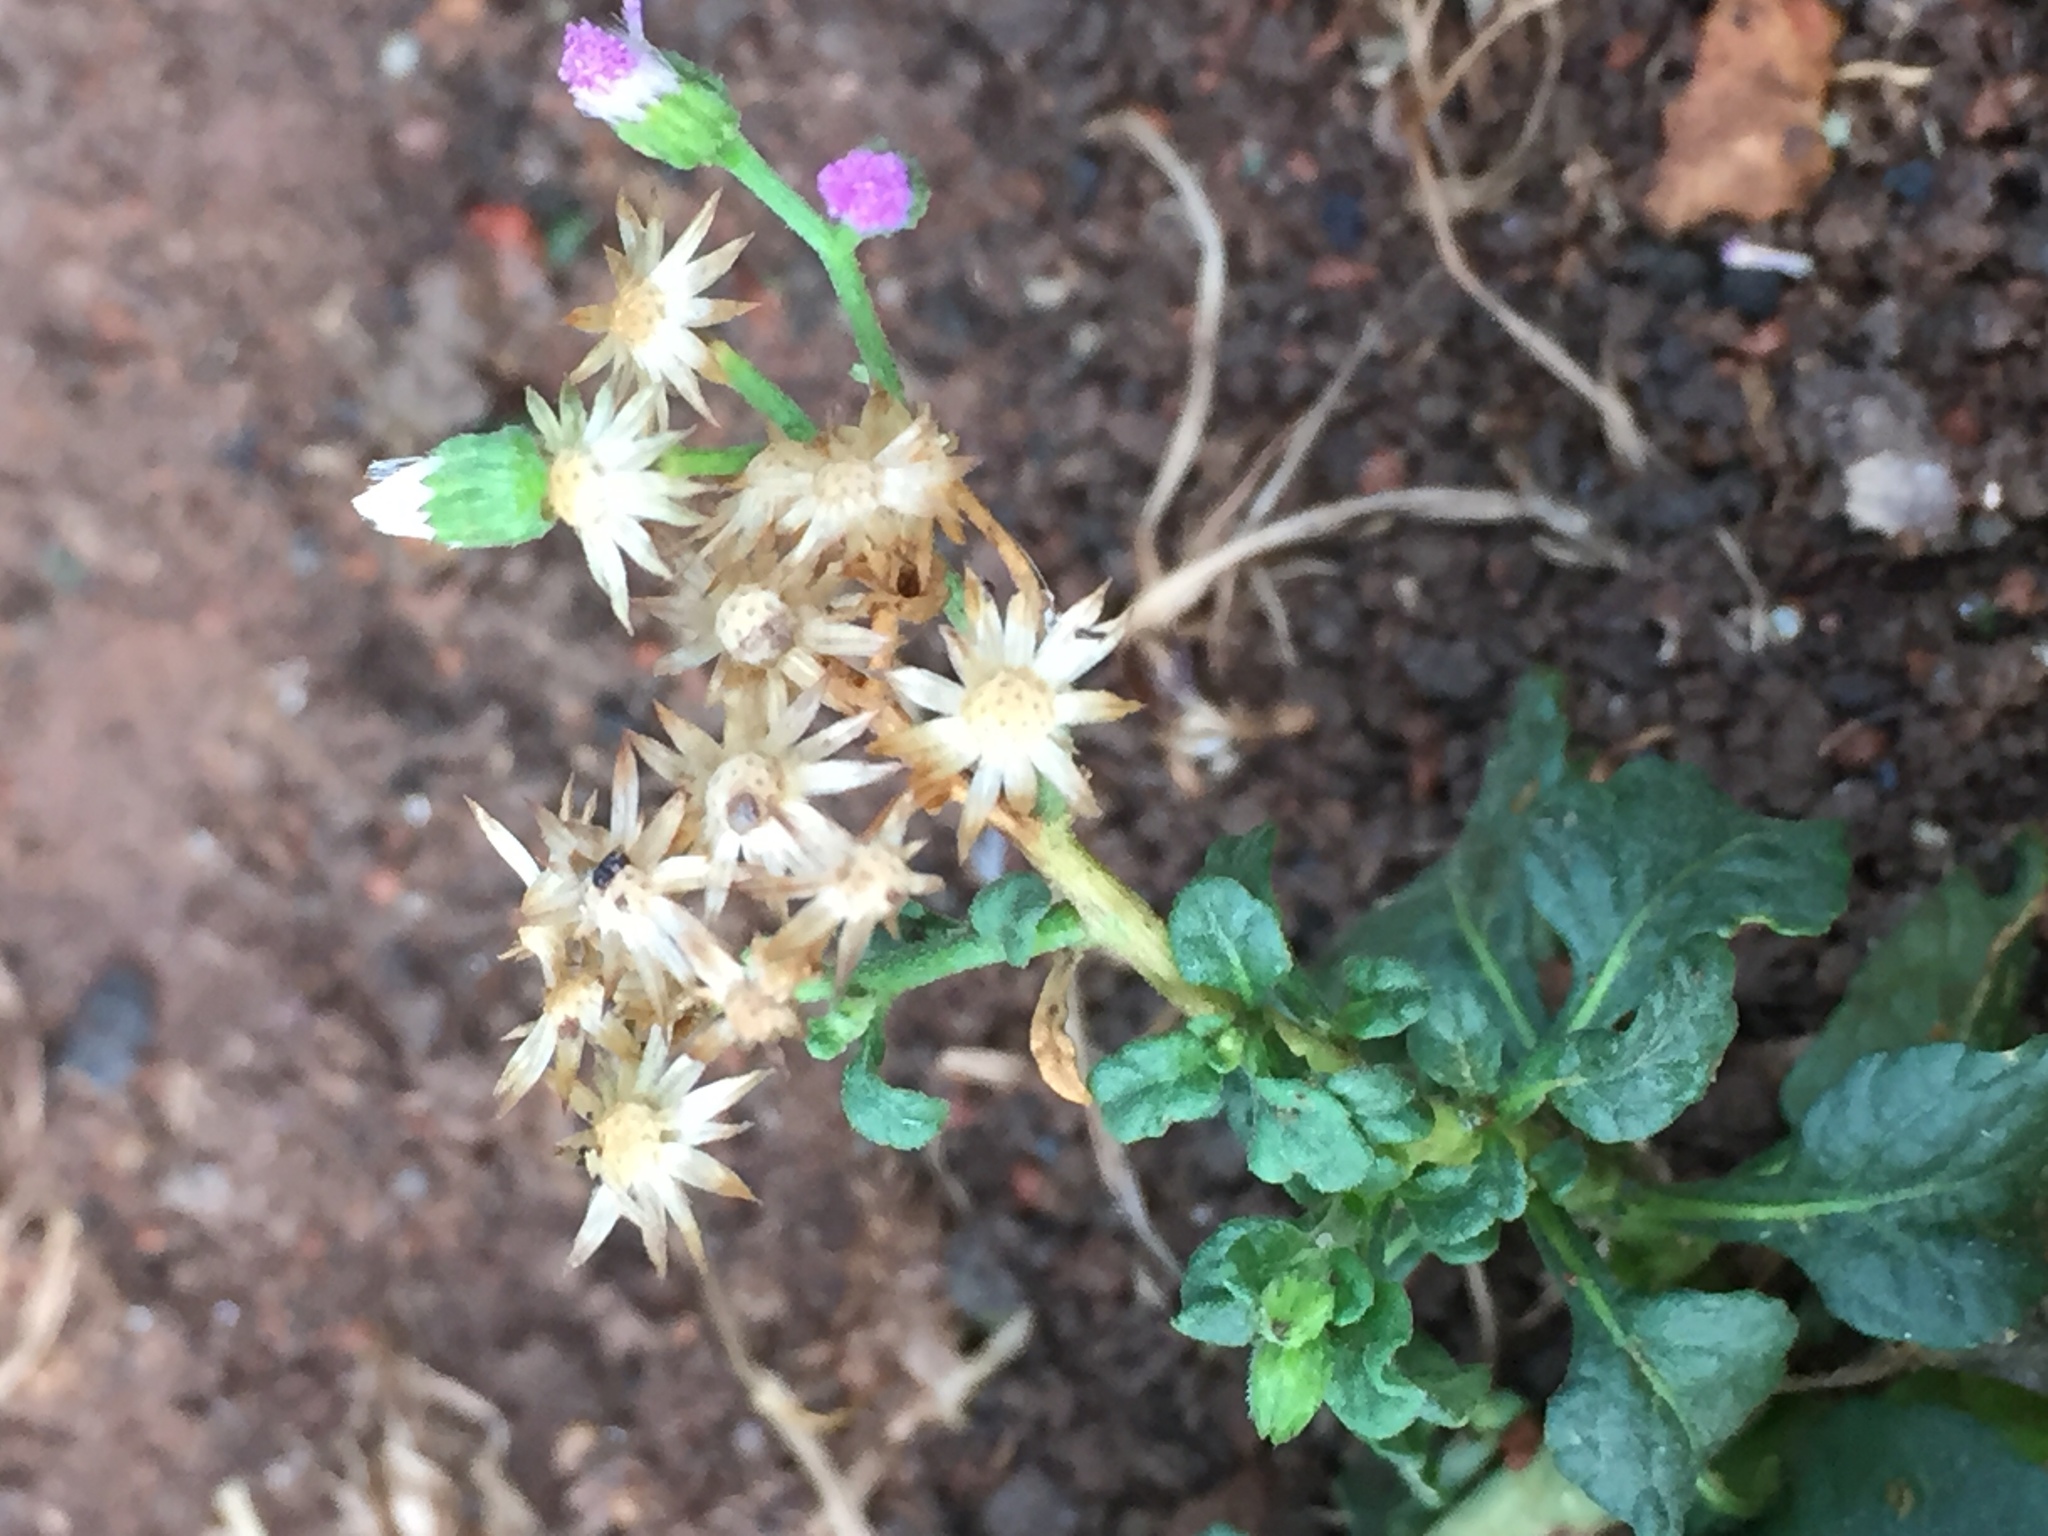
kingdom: Plantae
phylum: Tracheophyta
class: Magnoliopsida
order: Asterales
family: Asteraceae
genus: Cyanthillium
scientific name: Cyanthillium cinereum
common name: Little ironweed
